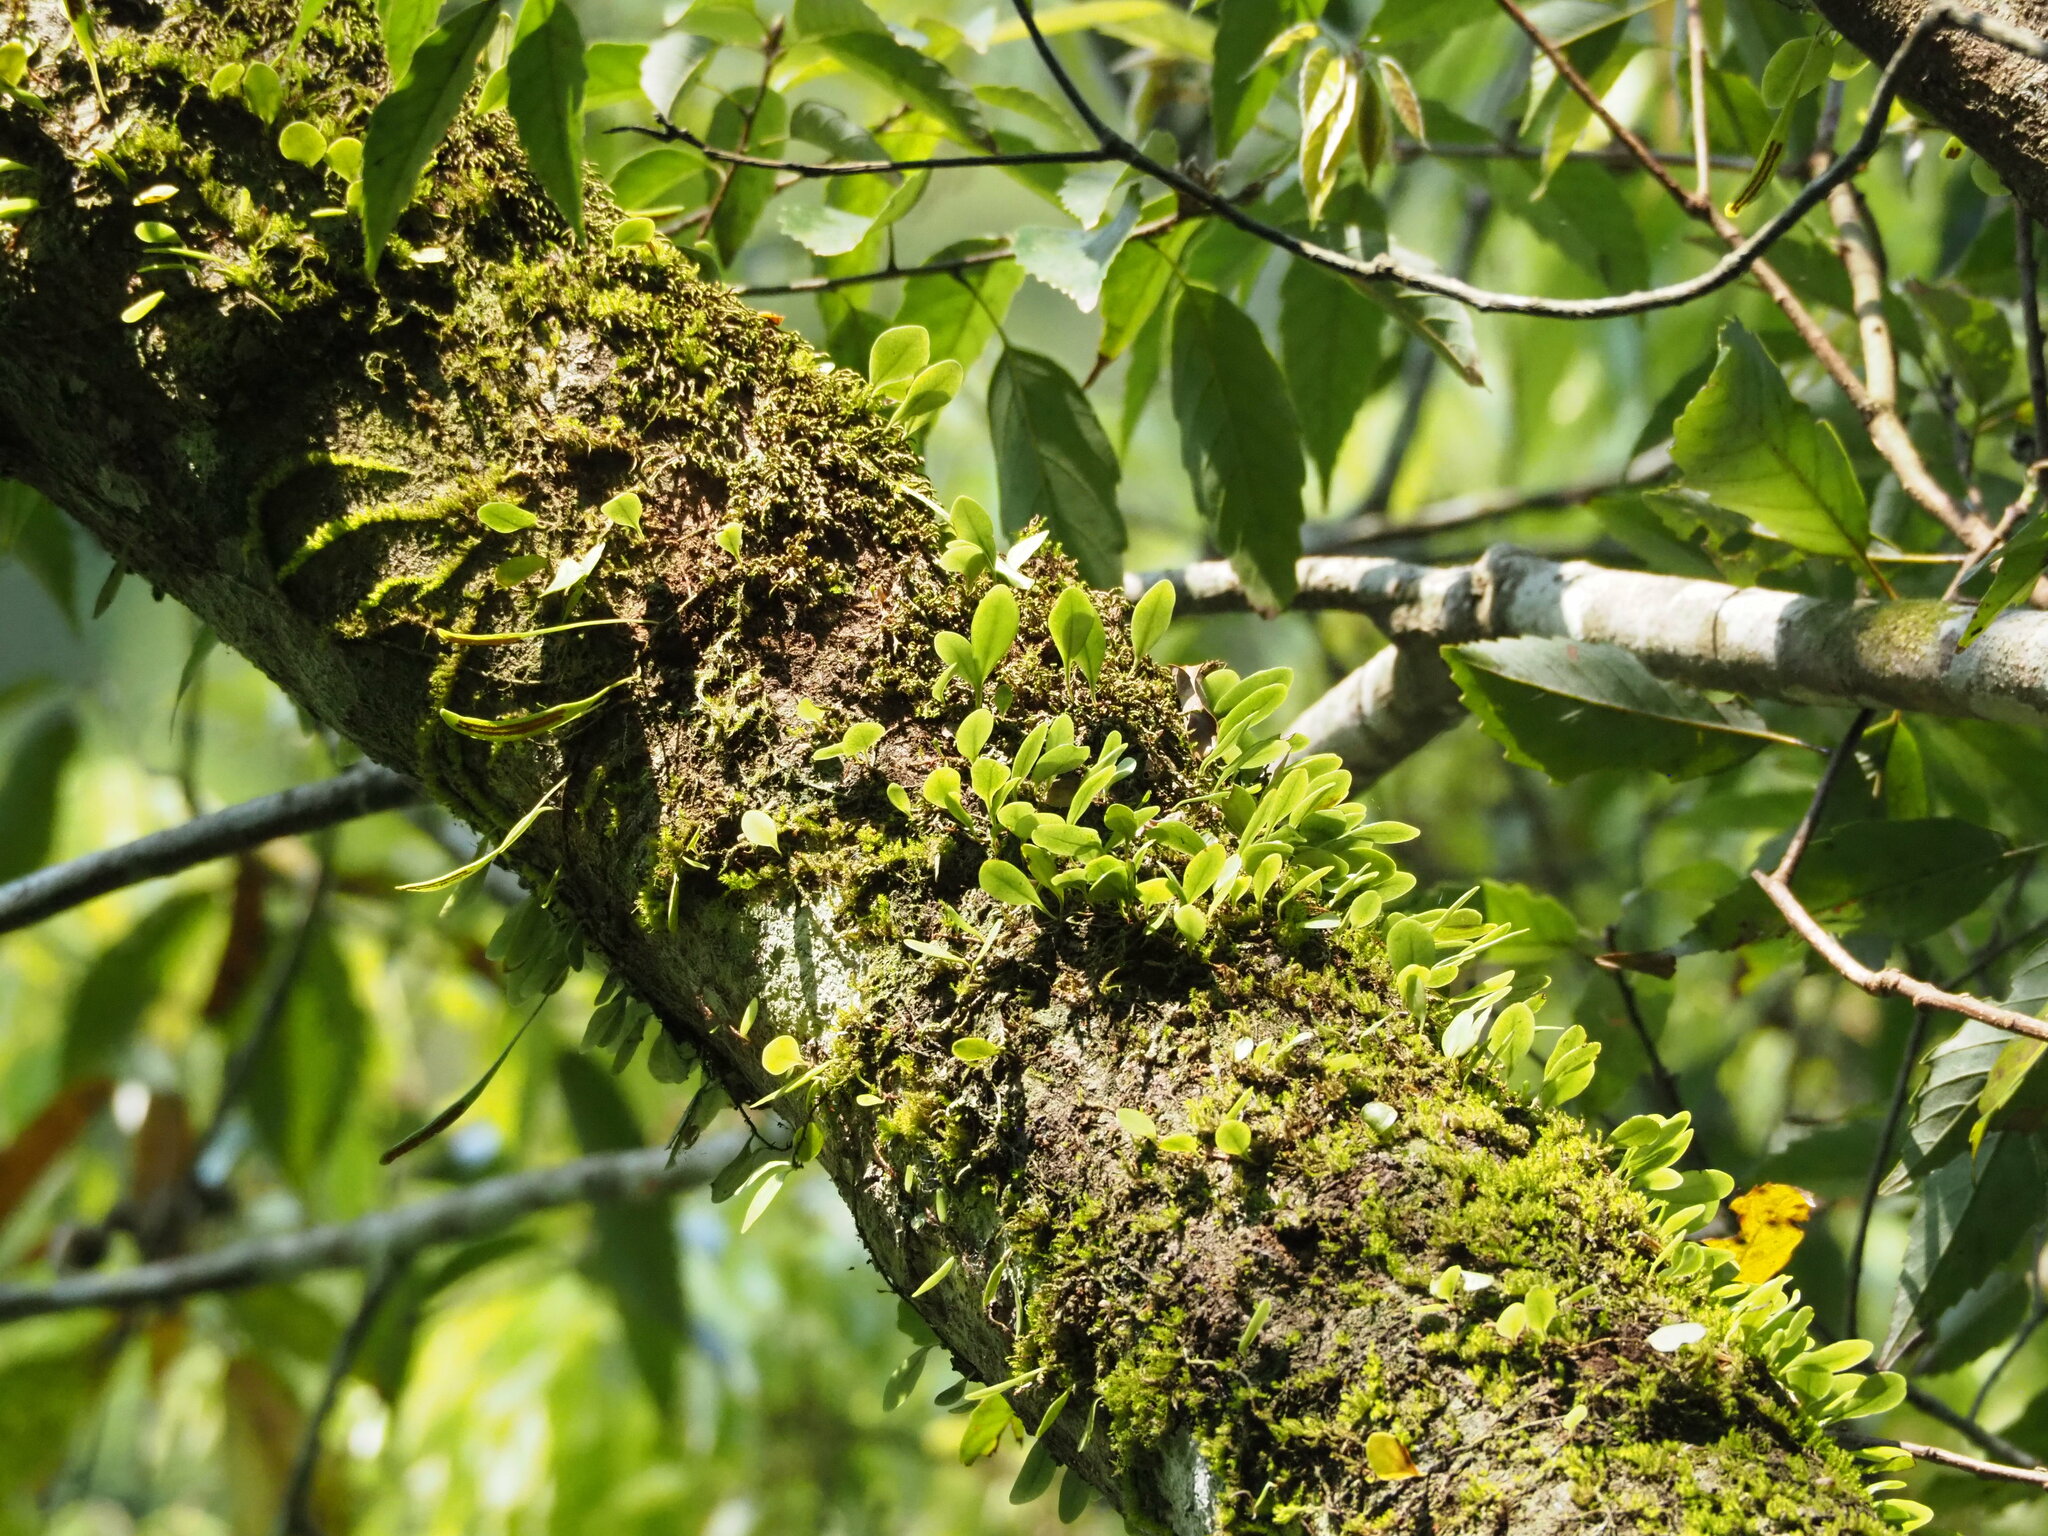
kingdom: Plantae
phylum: Tracheophyta
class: Polypodiopsida
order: Polypodiales
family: Polypodiaceae
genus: Lepisorus
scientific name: Lepisorus microphyllus
